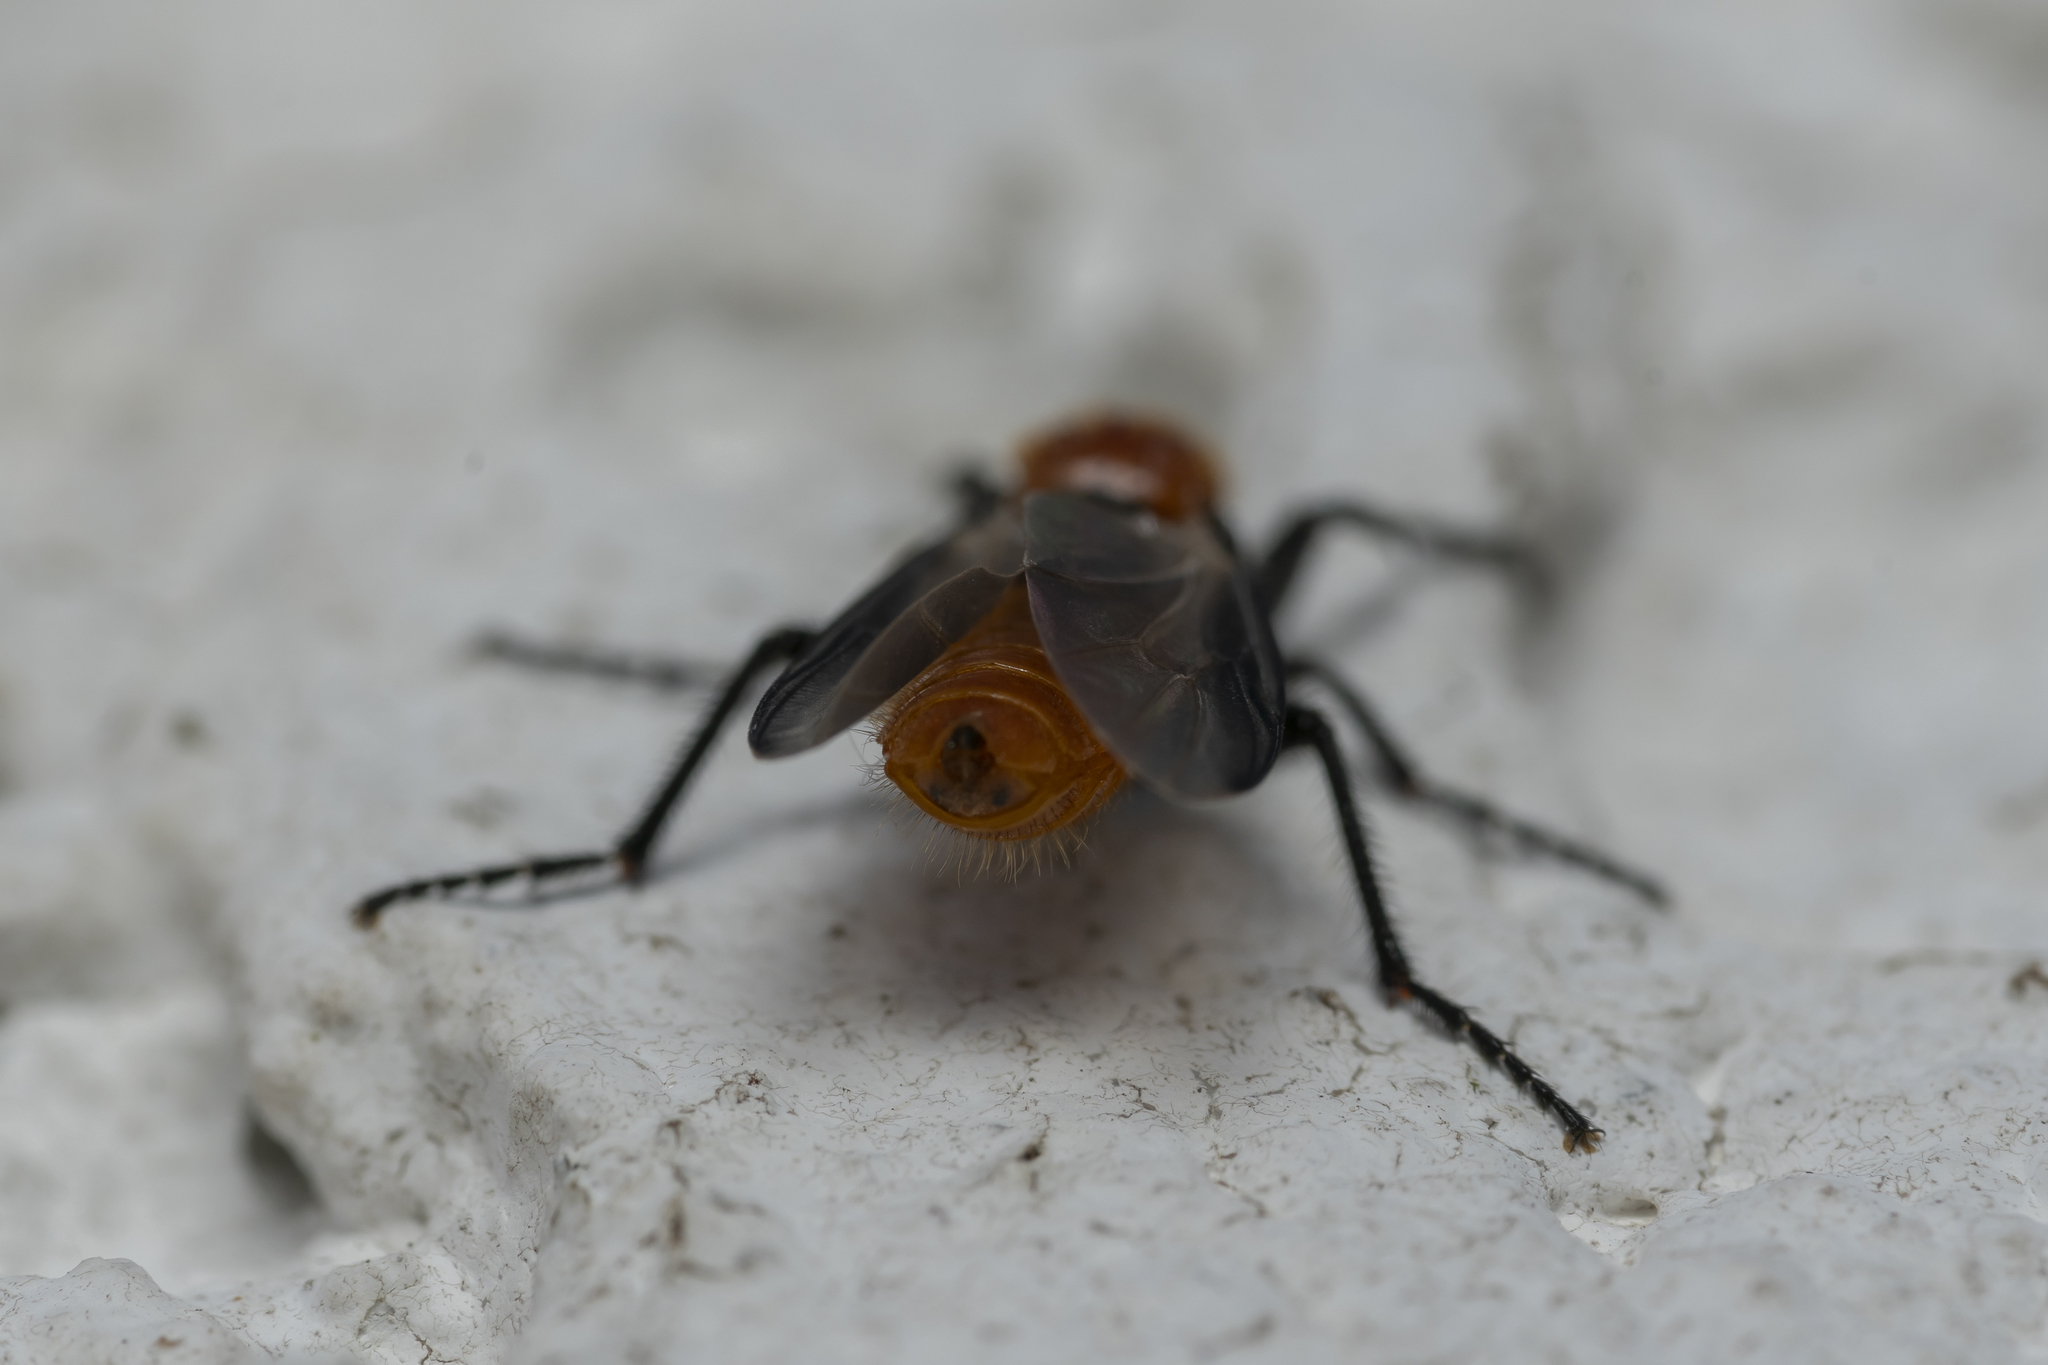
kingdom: Animalia
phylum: Arthropoda
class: Insecta
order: Diptera
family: Bibionidae
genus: Bibio
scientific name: Bibio hortulanus
